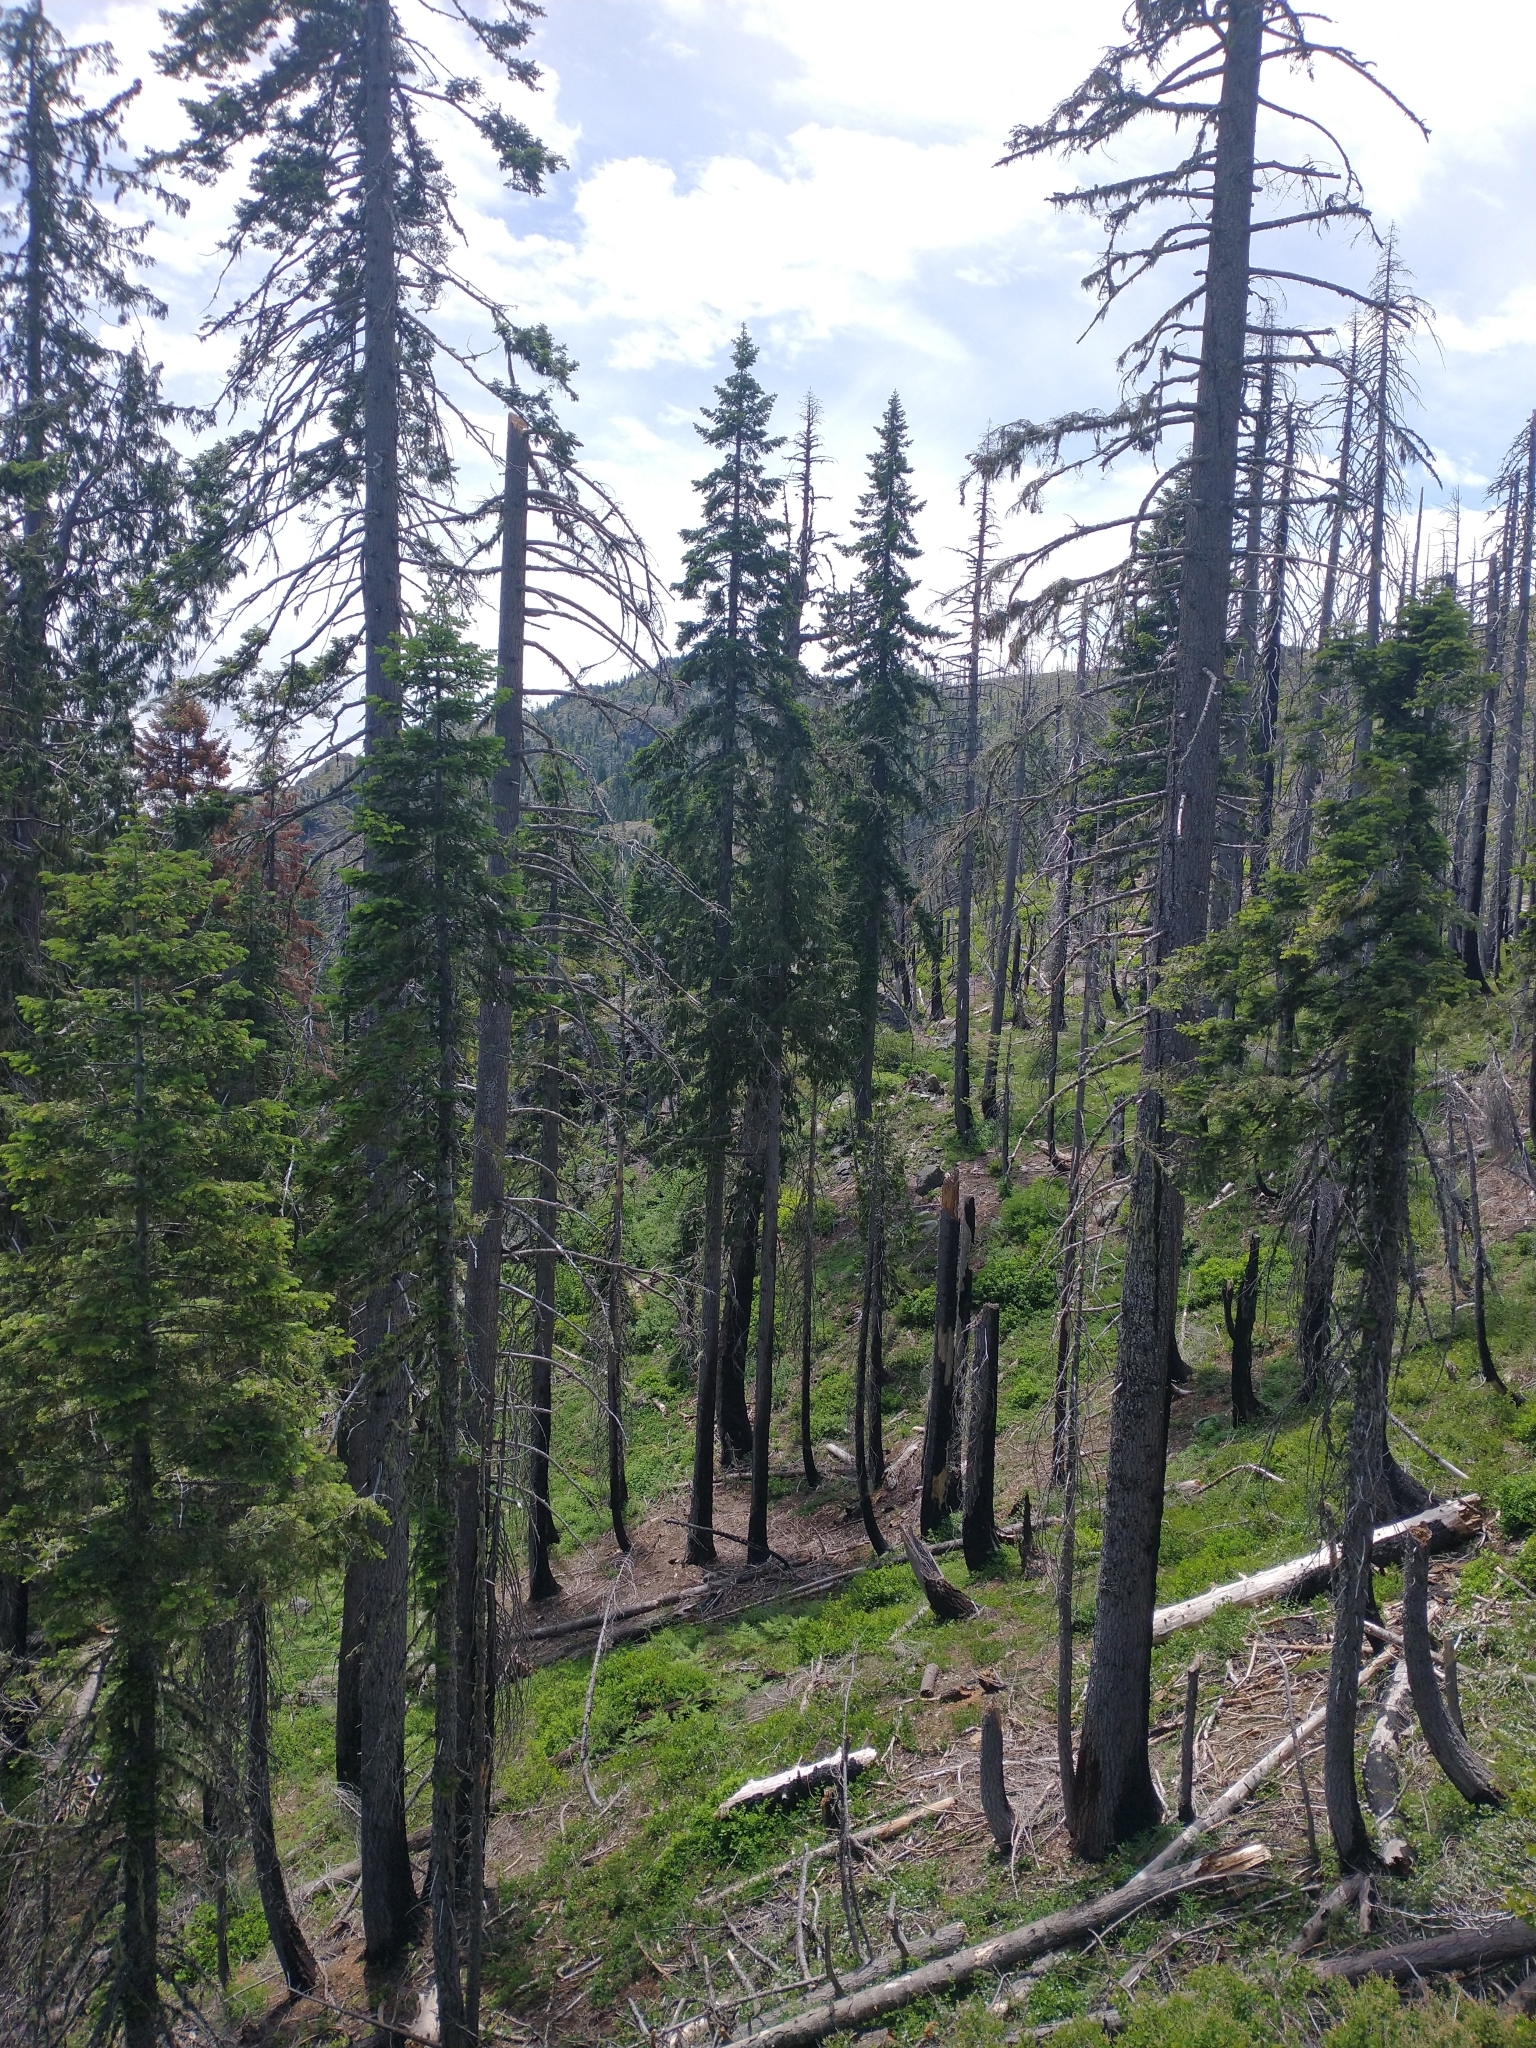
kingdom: Plantae
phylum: Tracheophyta
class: Pinopsida
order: Pinales
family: Pinaceae
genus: Pseudotsuga
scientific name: Pseudotsuga menziesii
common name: Douglas fir
